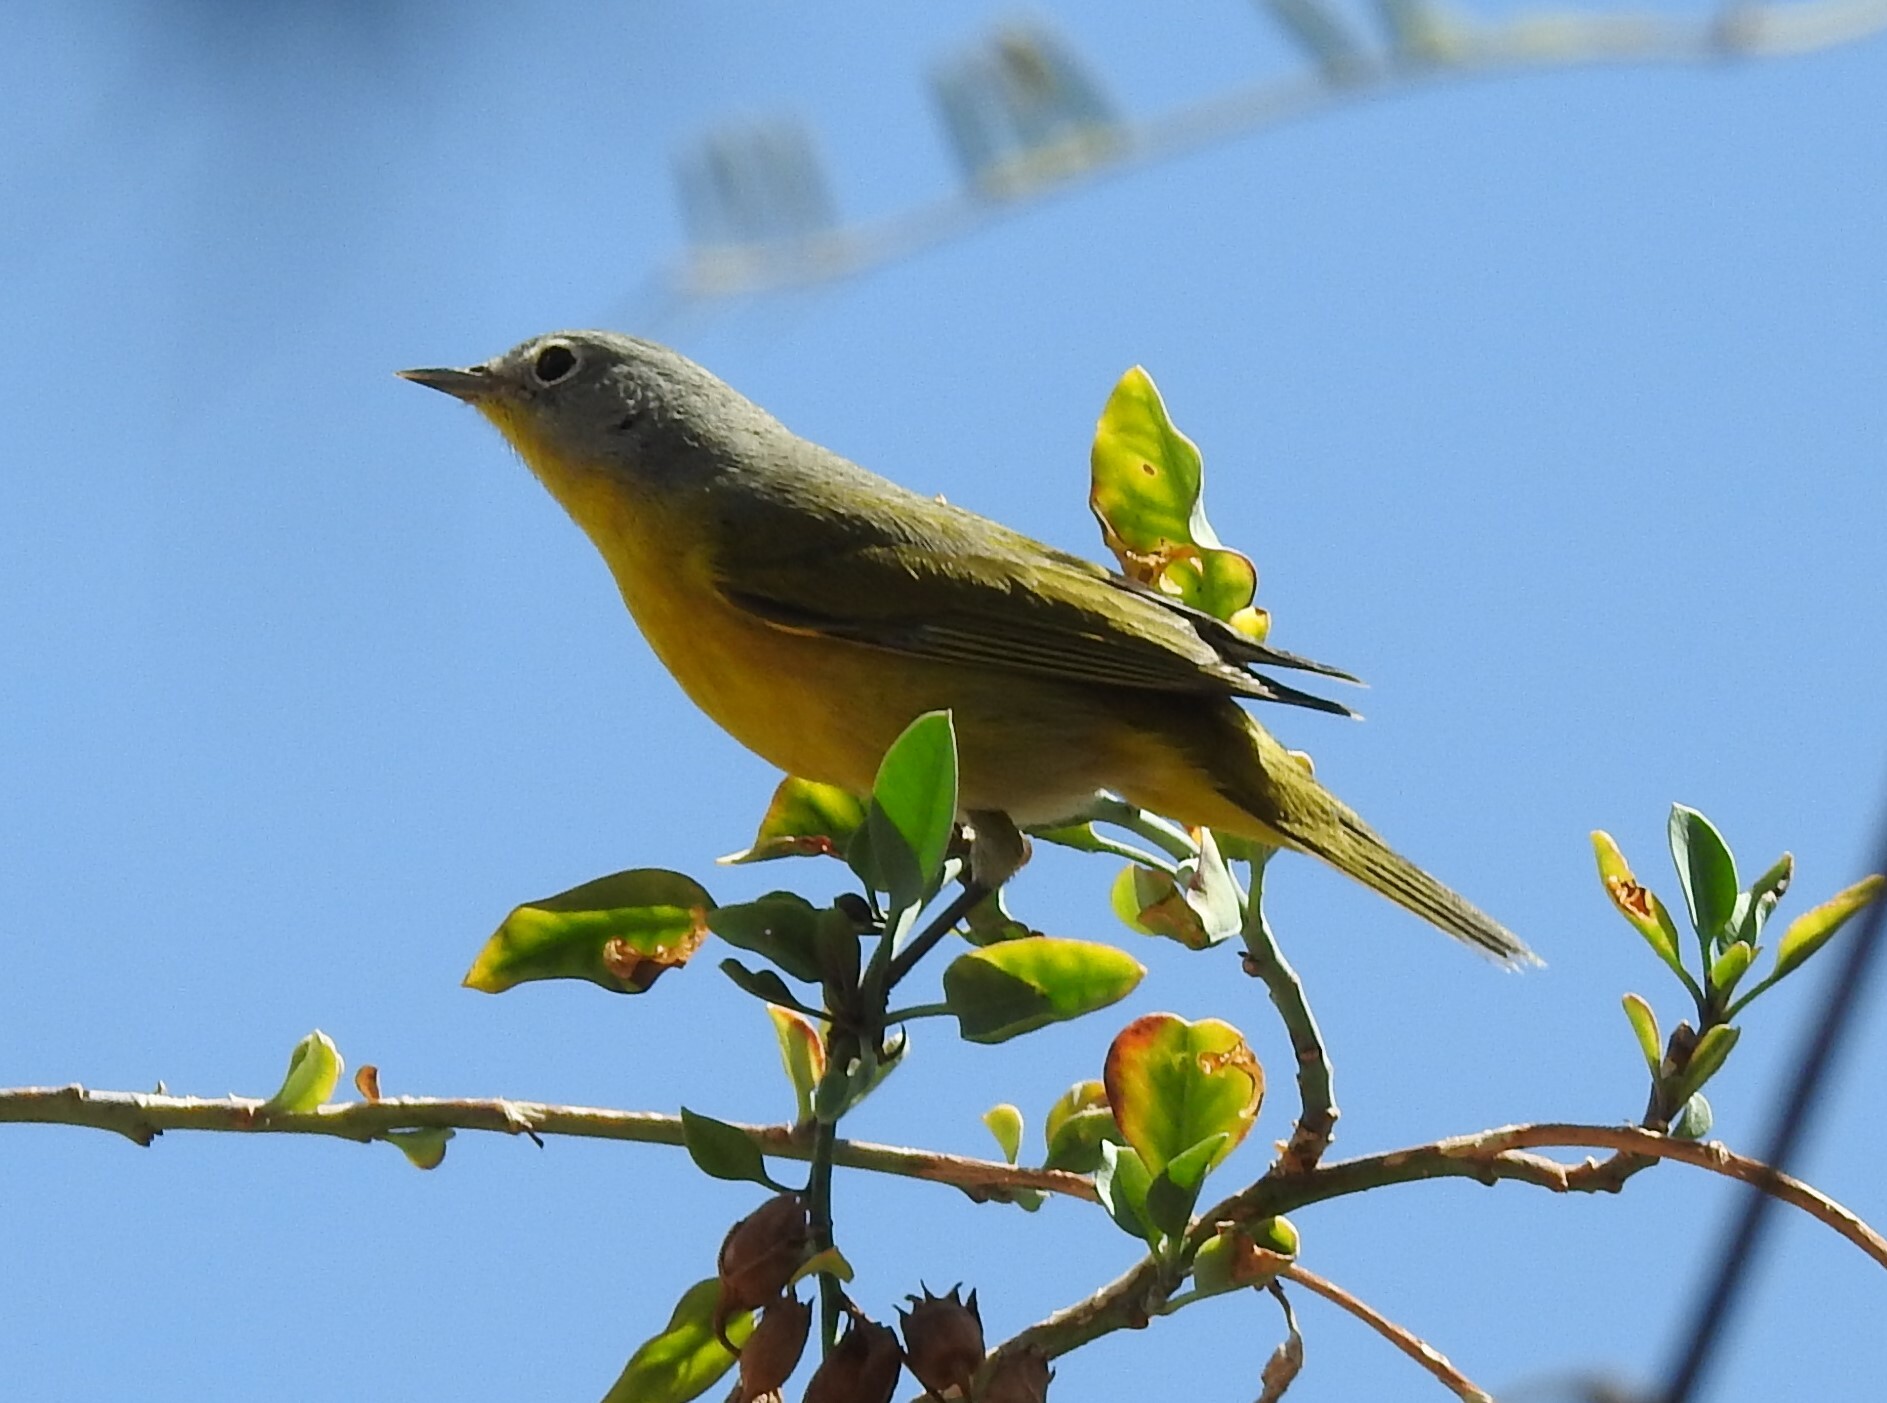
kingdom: Animalia
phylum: Chordata
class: Aves
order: Passeriformes
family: Parulidae
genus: Leiothlypis
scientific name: Leiothlypis ruficapilla
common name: Nashville warbler
